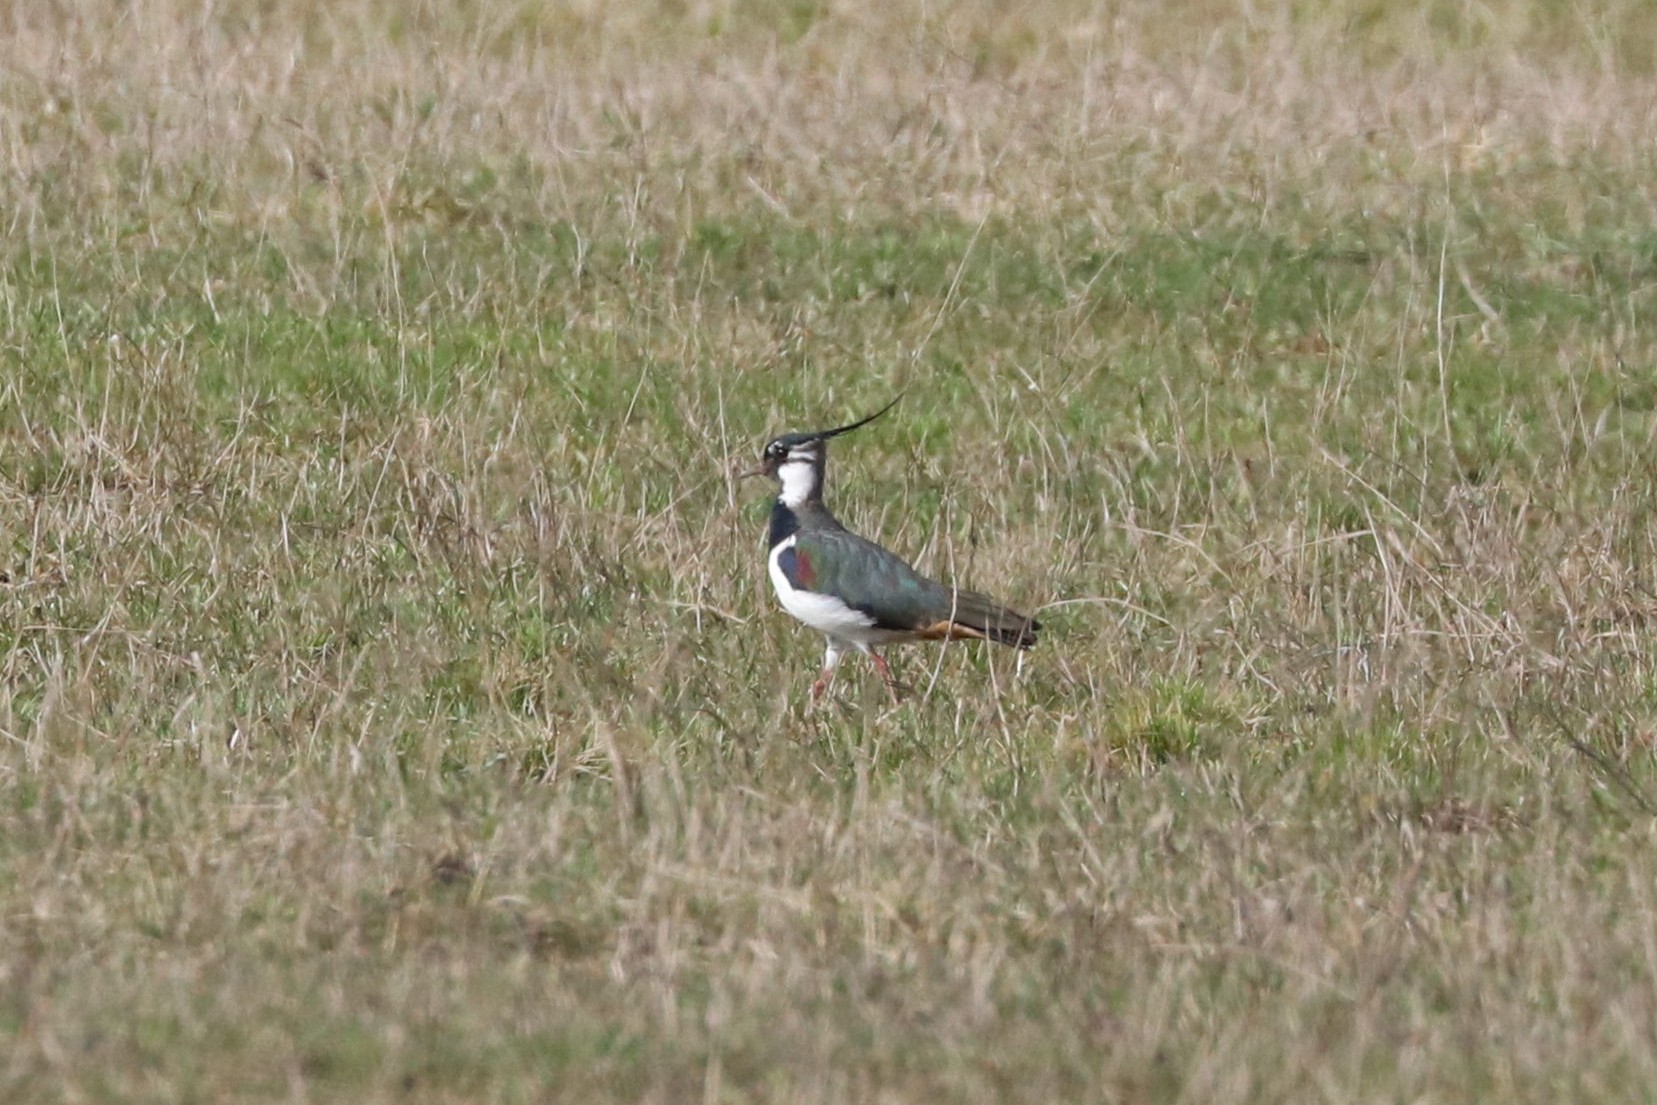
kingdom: Animalia
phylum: Chordata
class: Aves
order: Charadriiformes
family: Charadriidae
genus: Vanellus
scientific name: Vanellus vanellus
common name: Northern lapwing
